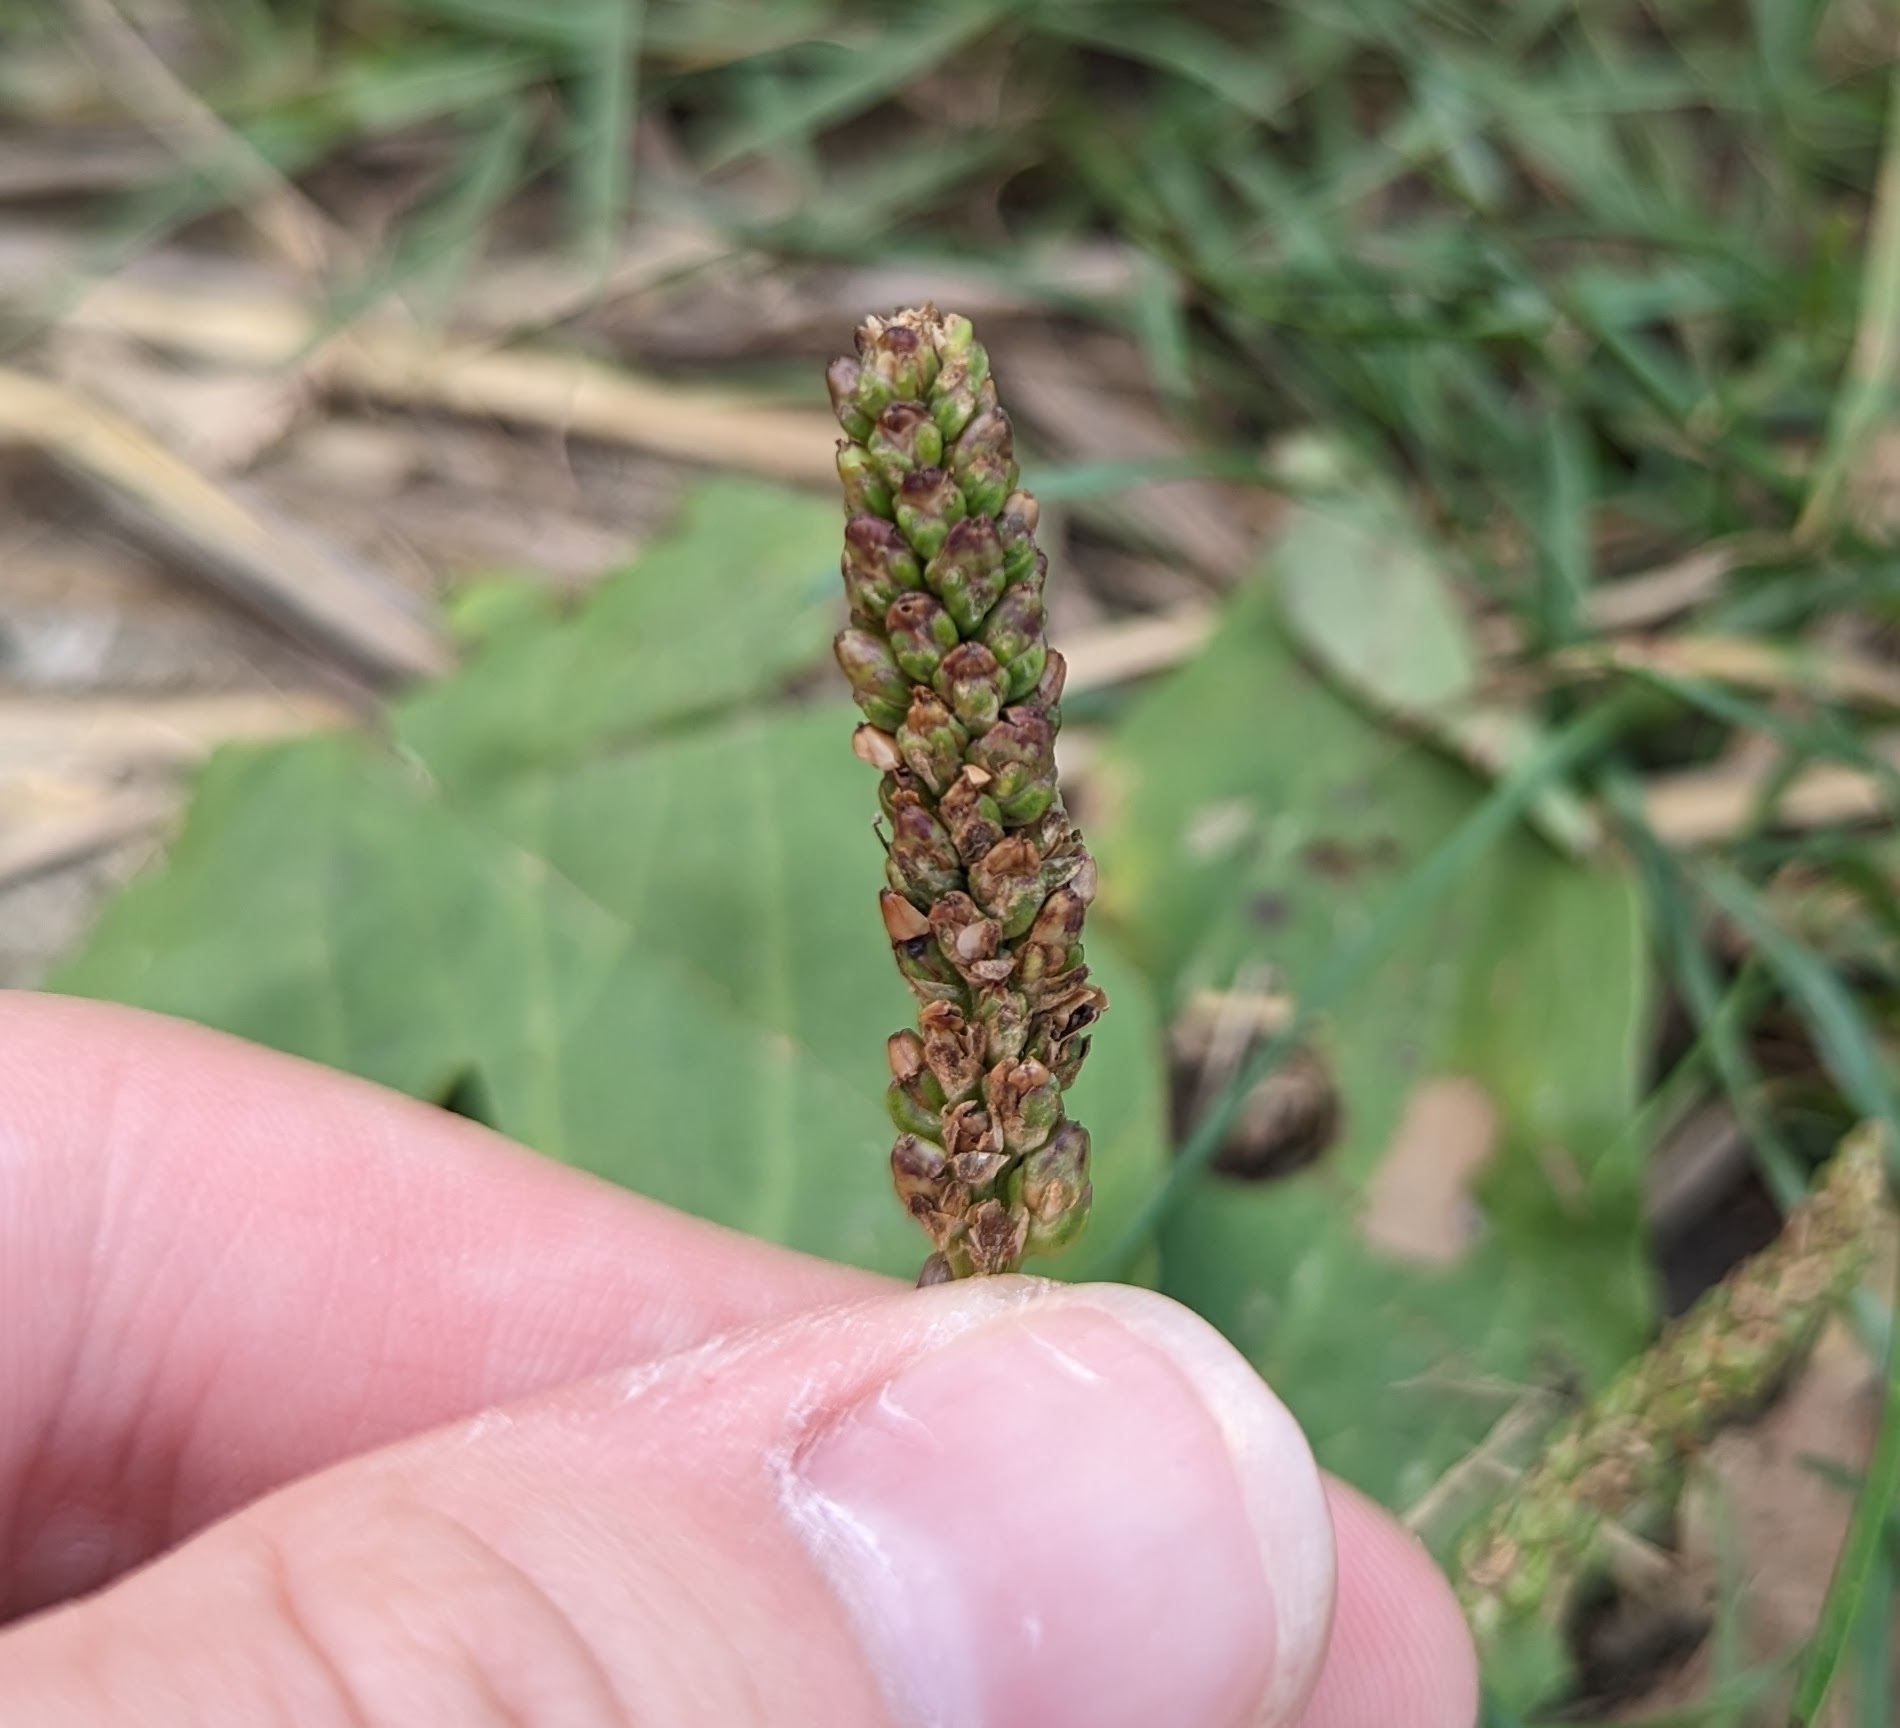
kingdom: Plantae
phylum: Tracheophyta
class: Magnoliopsida
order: Lamiales
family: Plantaginaceae
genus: Plantago
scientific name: Plantago major
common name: Common plantain
